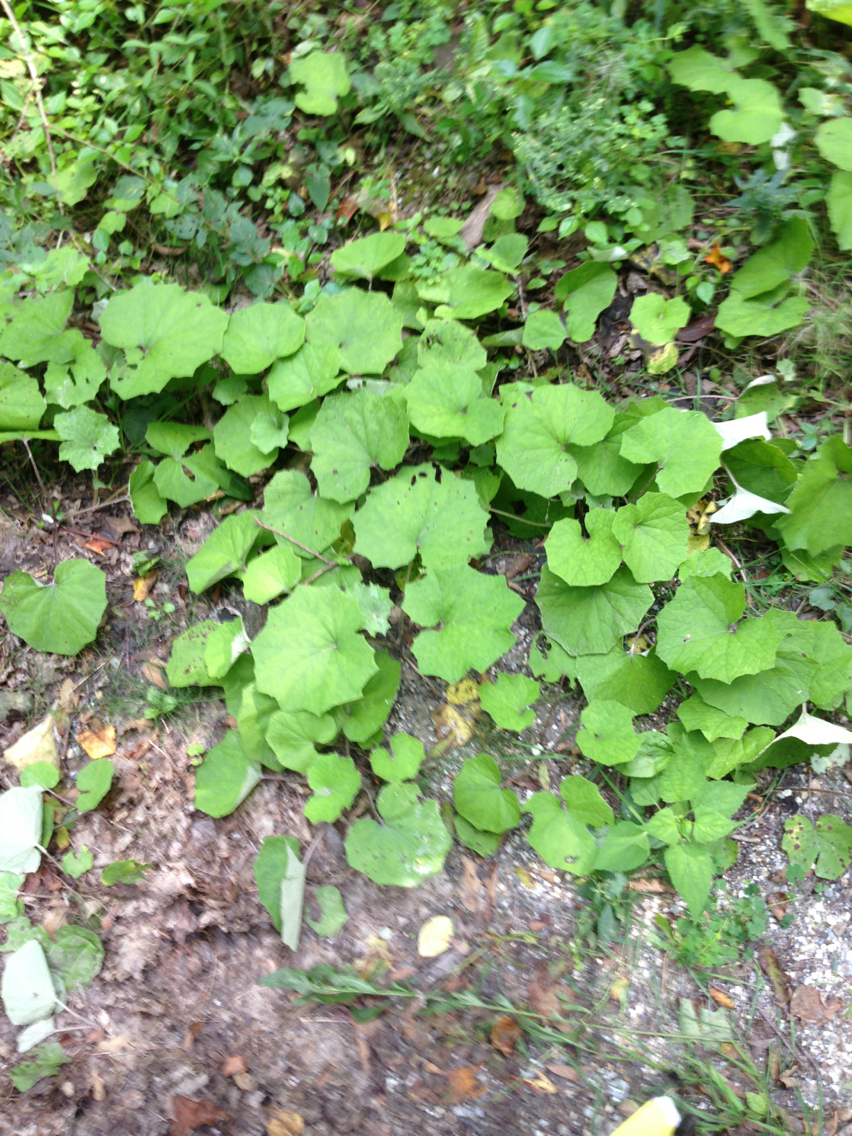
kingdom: Plantae
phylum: Tracheophyta
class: Magnoliopsida
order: Asterales
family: Asteraceae
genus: Tussilago
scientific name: Tussilago farfara
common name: Coltsfoot
